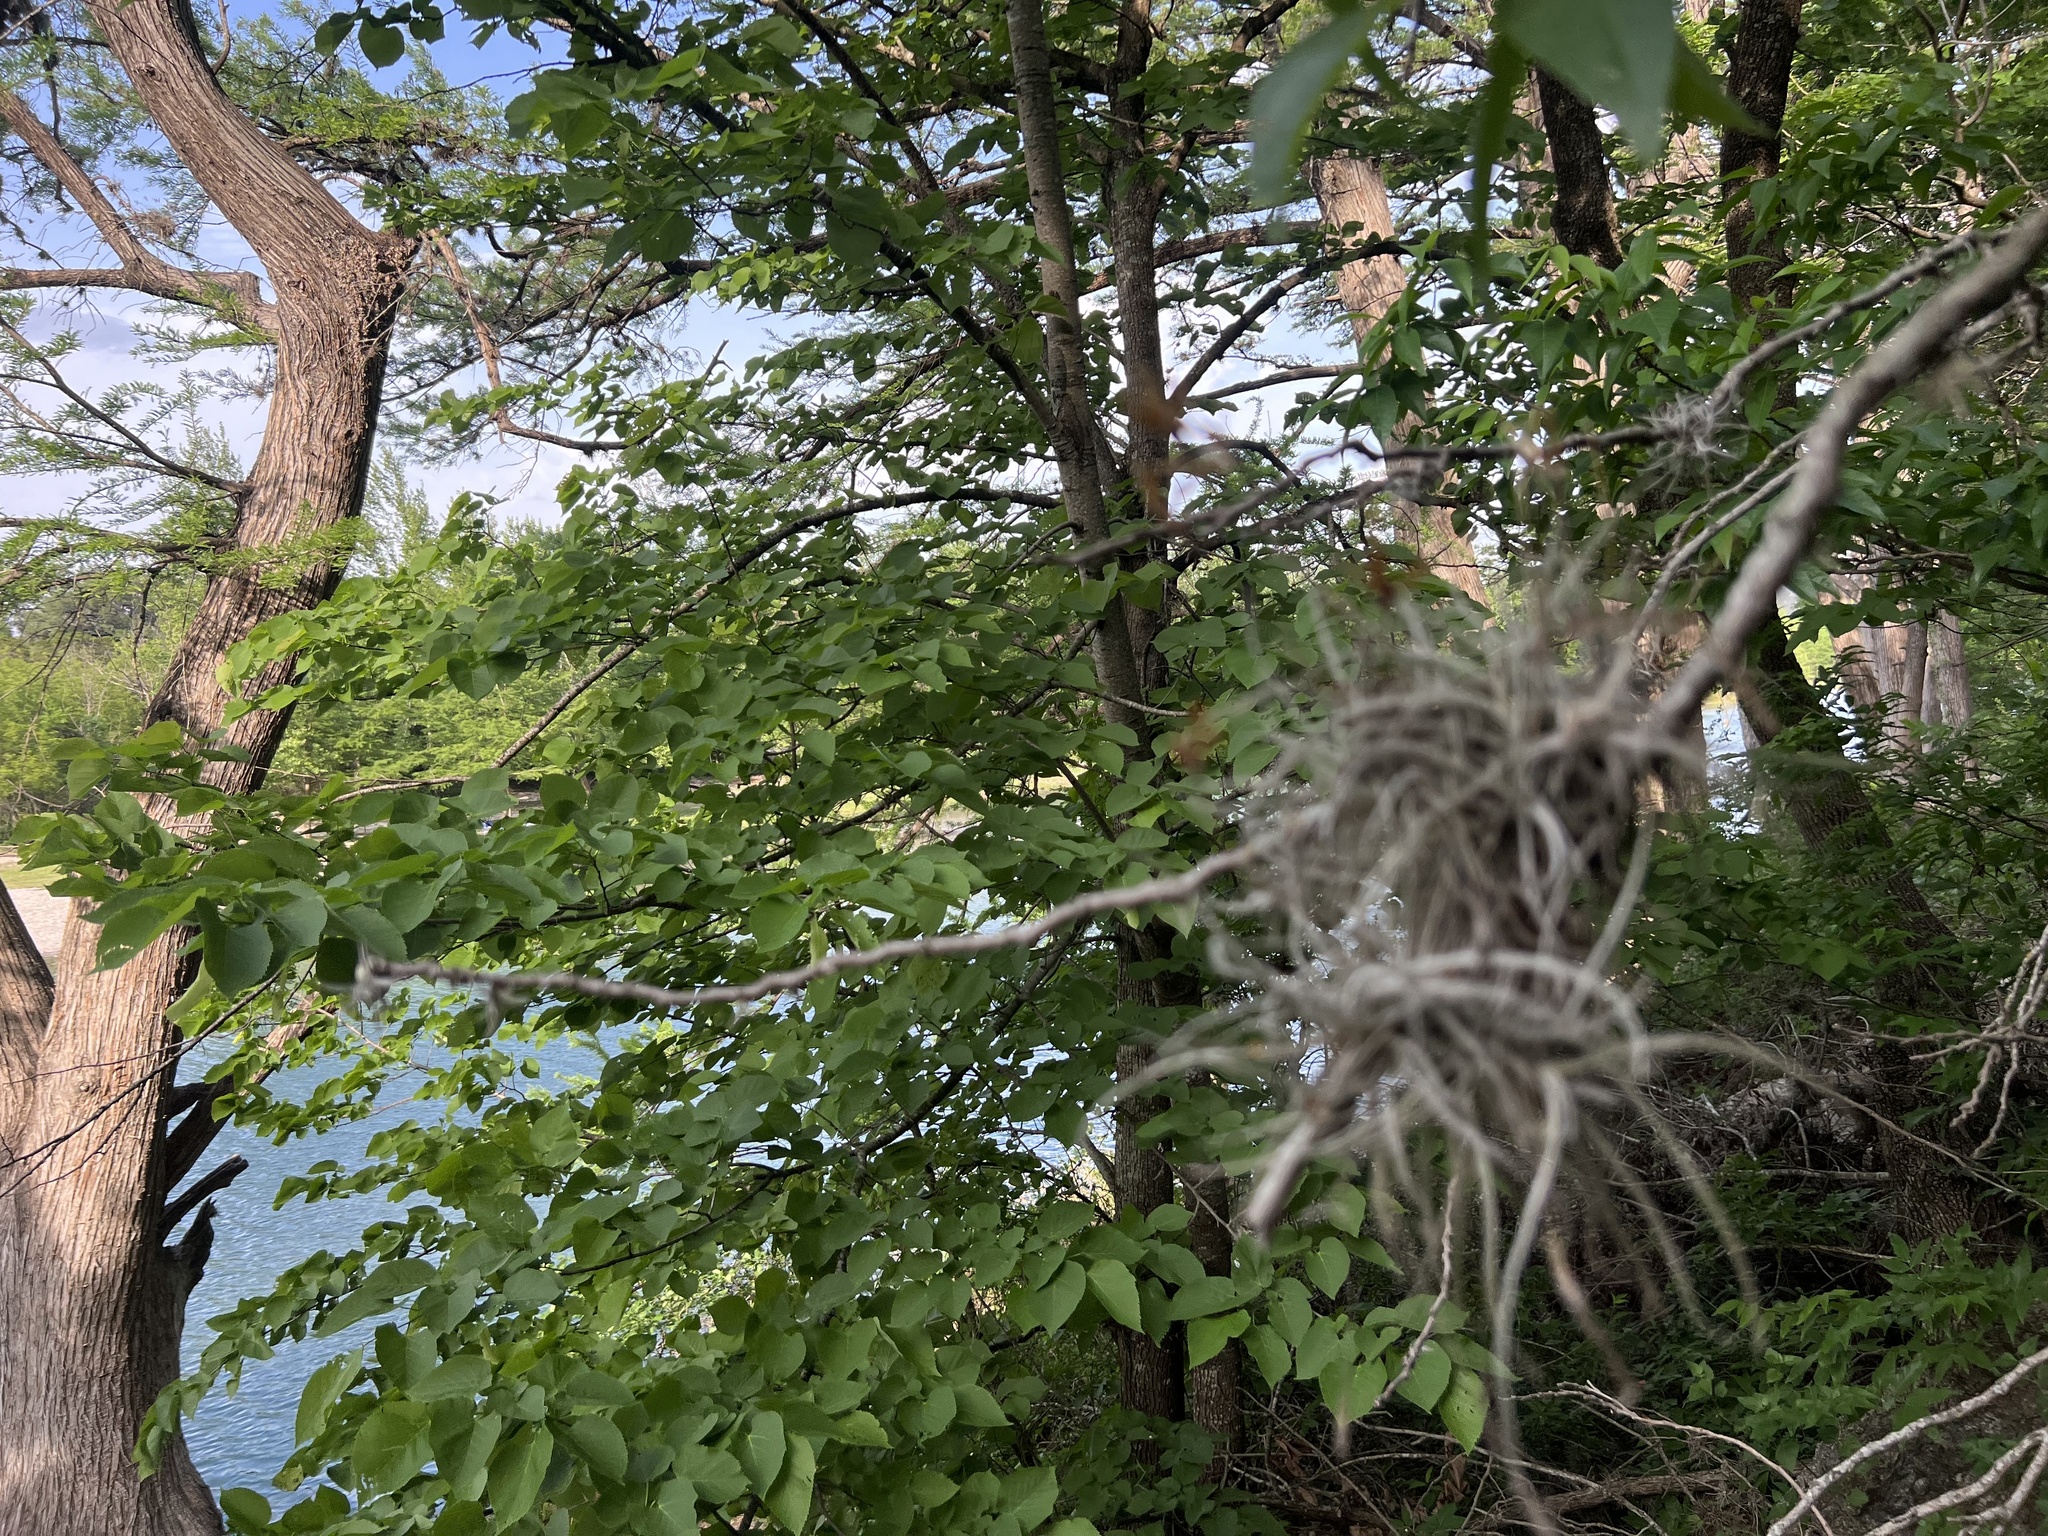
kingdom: Plantae
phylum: Tracheophyta
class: Liliopsida
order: Poales
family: Bromeliaceae
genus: Tillandsia
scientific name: Tillandsia recurvata
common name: Small ballmoss
